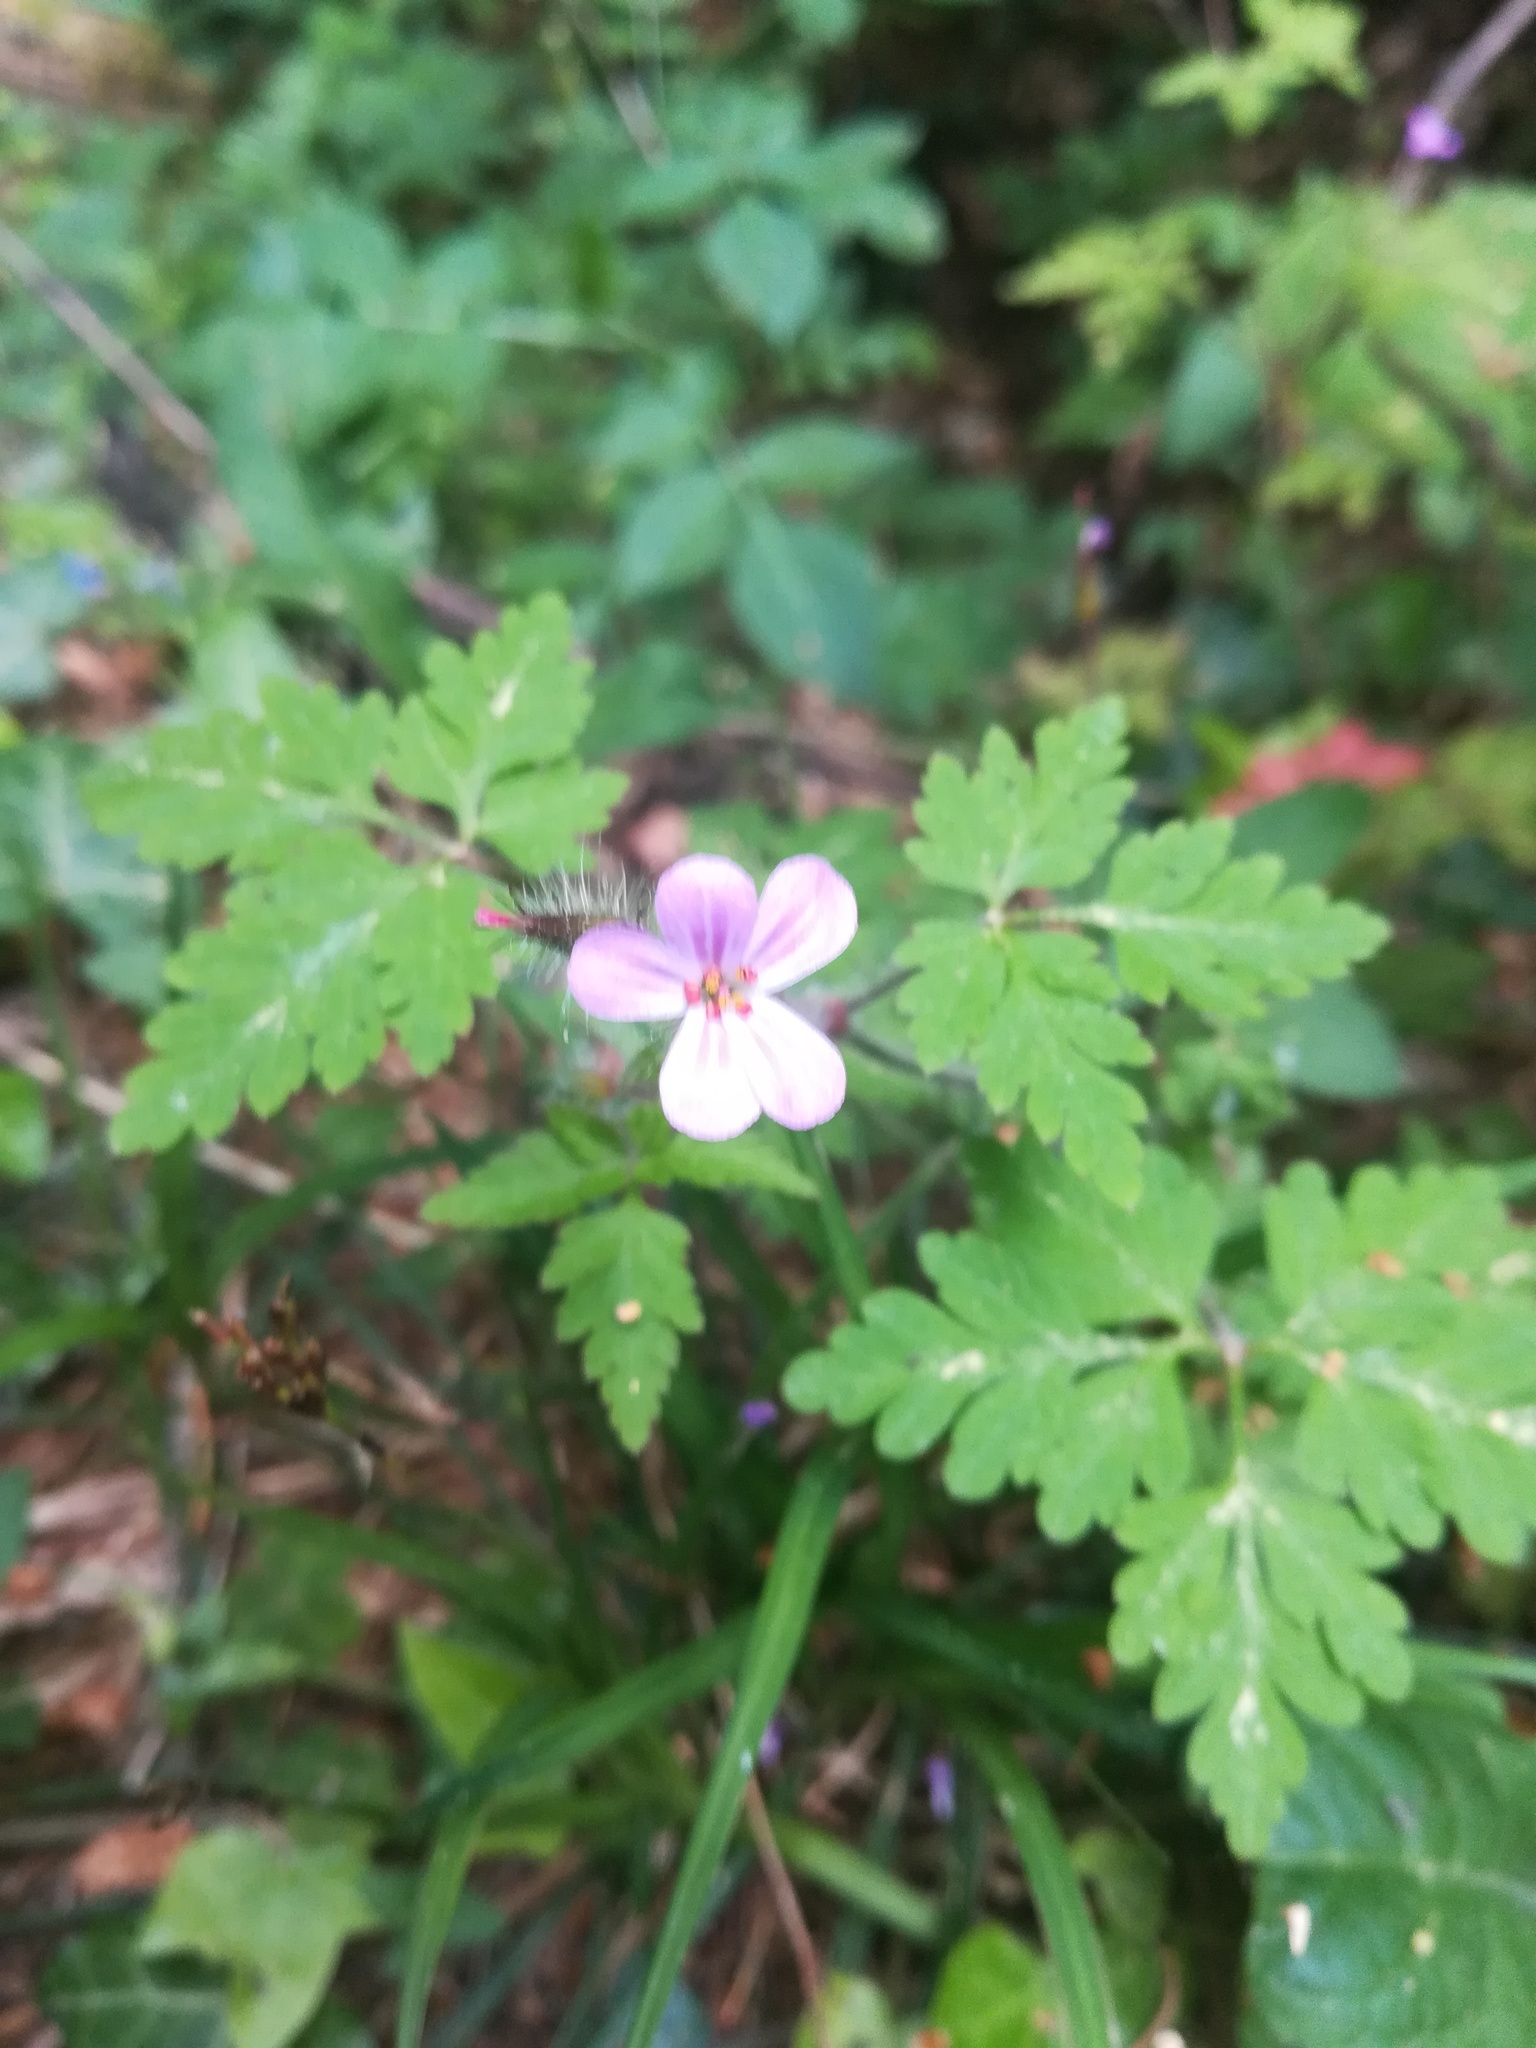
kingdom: Plantae
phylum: Tracheophyta
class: Magnoliopsida
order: Geraniales
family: Geraniaceae
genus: Geranium
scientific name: Geranium robertianum
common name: Herb-robert
